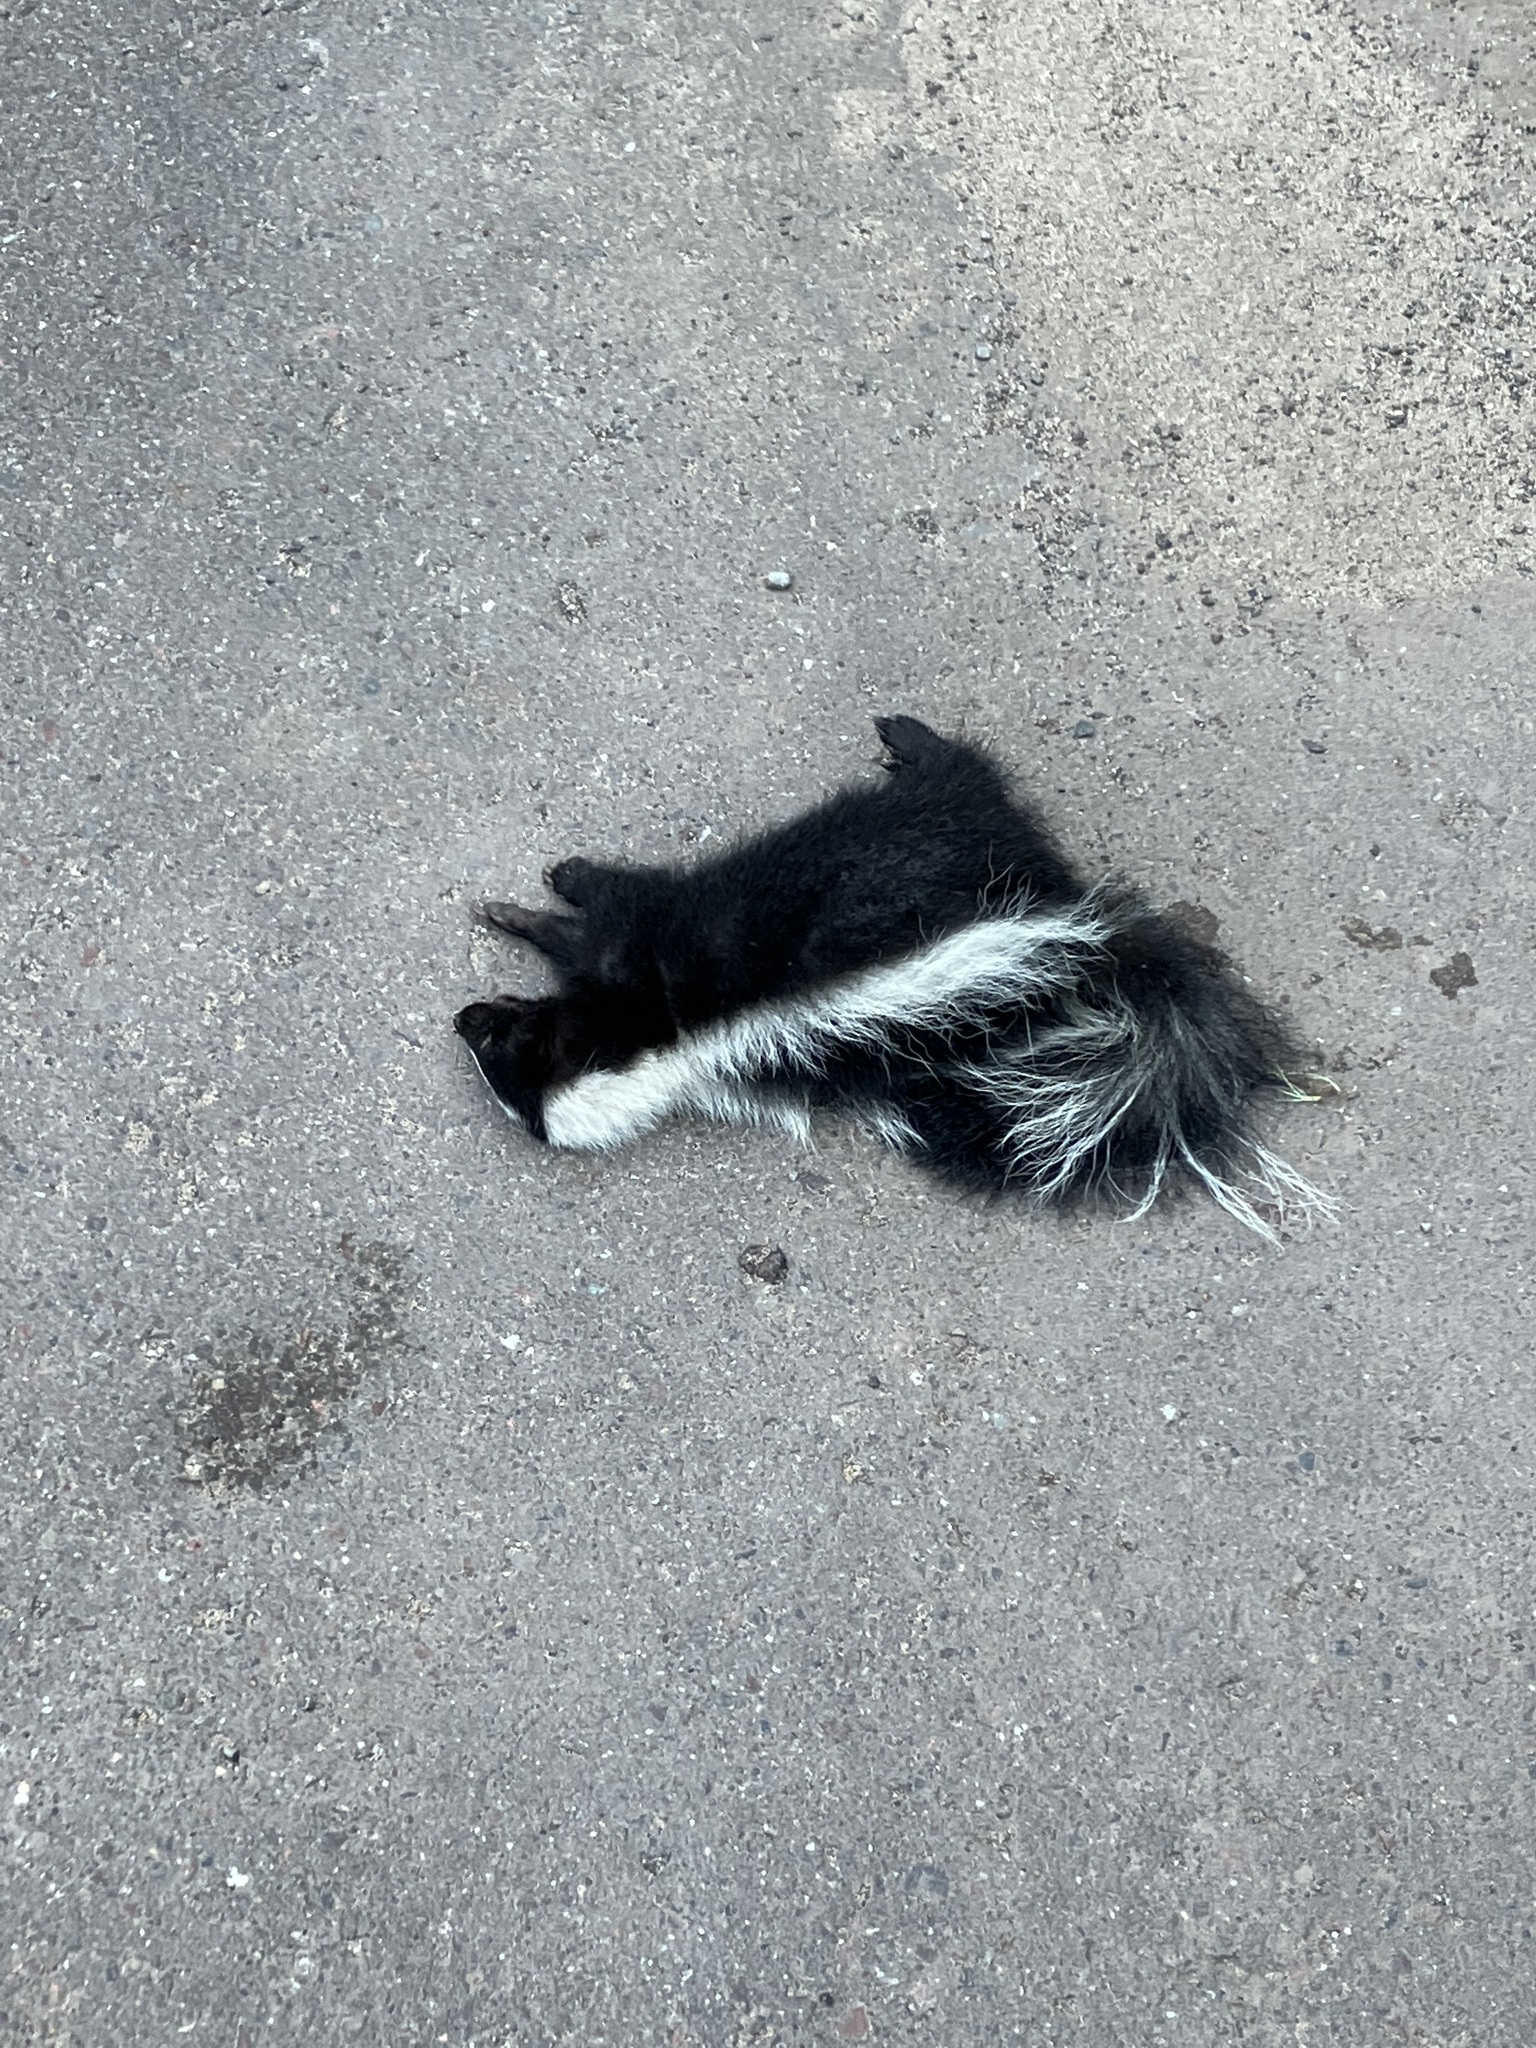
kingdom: Animalia
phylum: Chordata
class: Mammalia
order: Carnivora
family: Mephitidae
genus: Mephitis
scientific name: Mephitis mephitis
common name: Striped skunk
